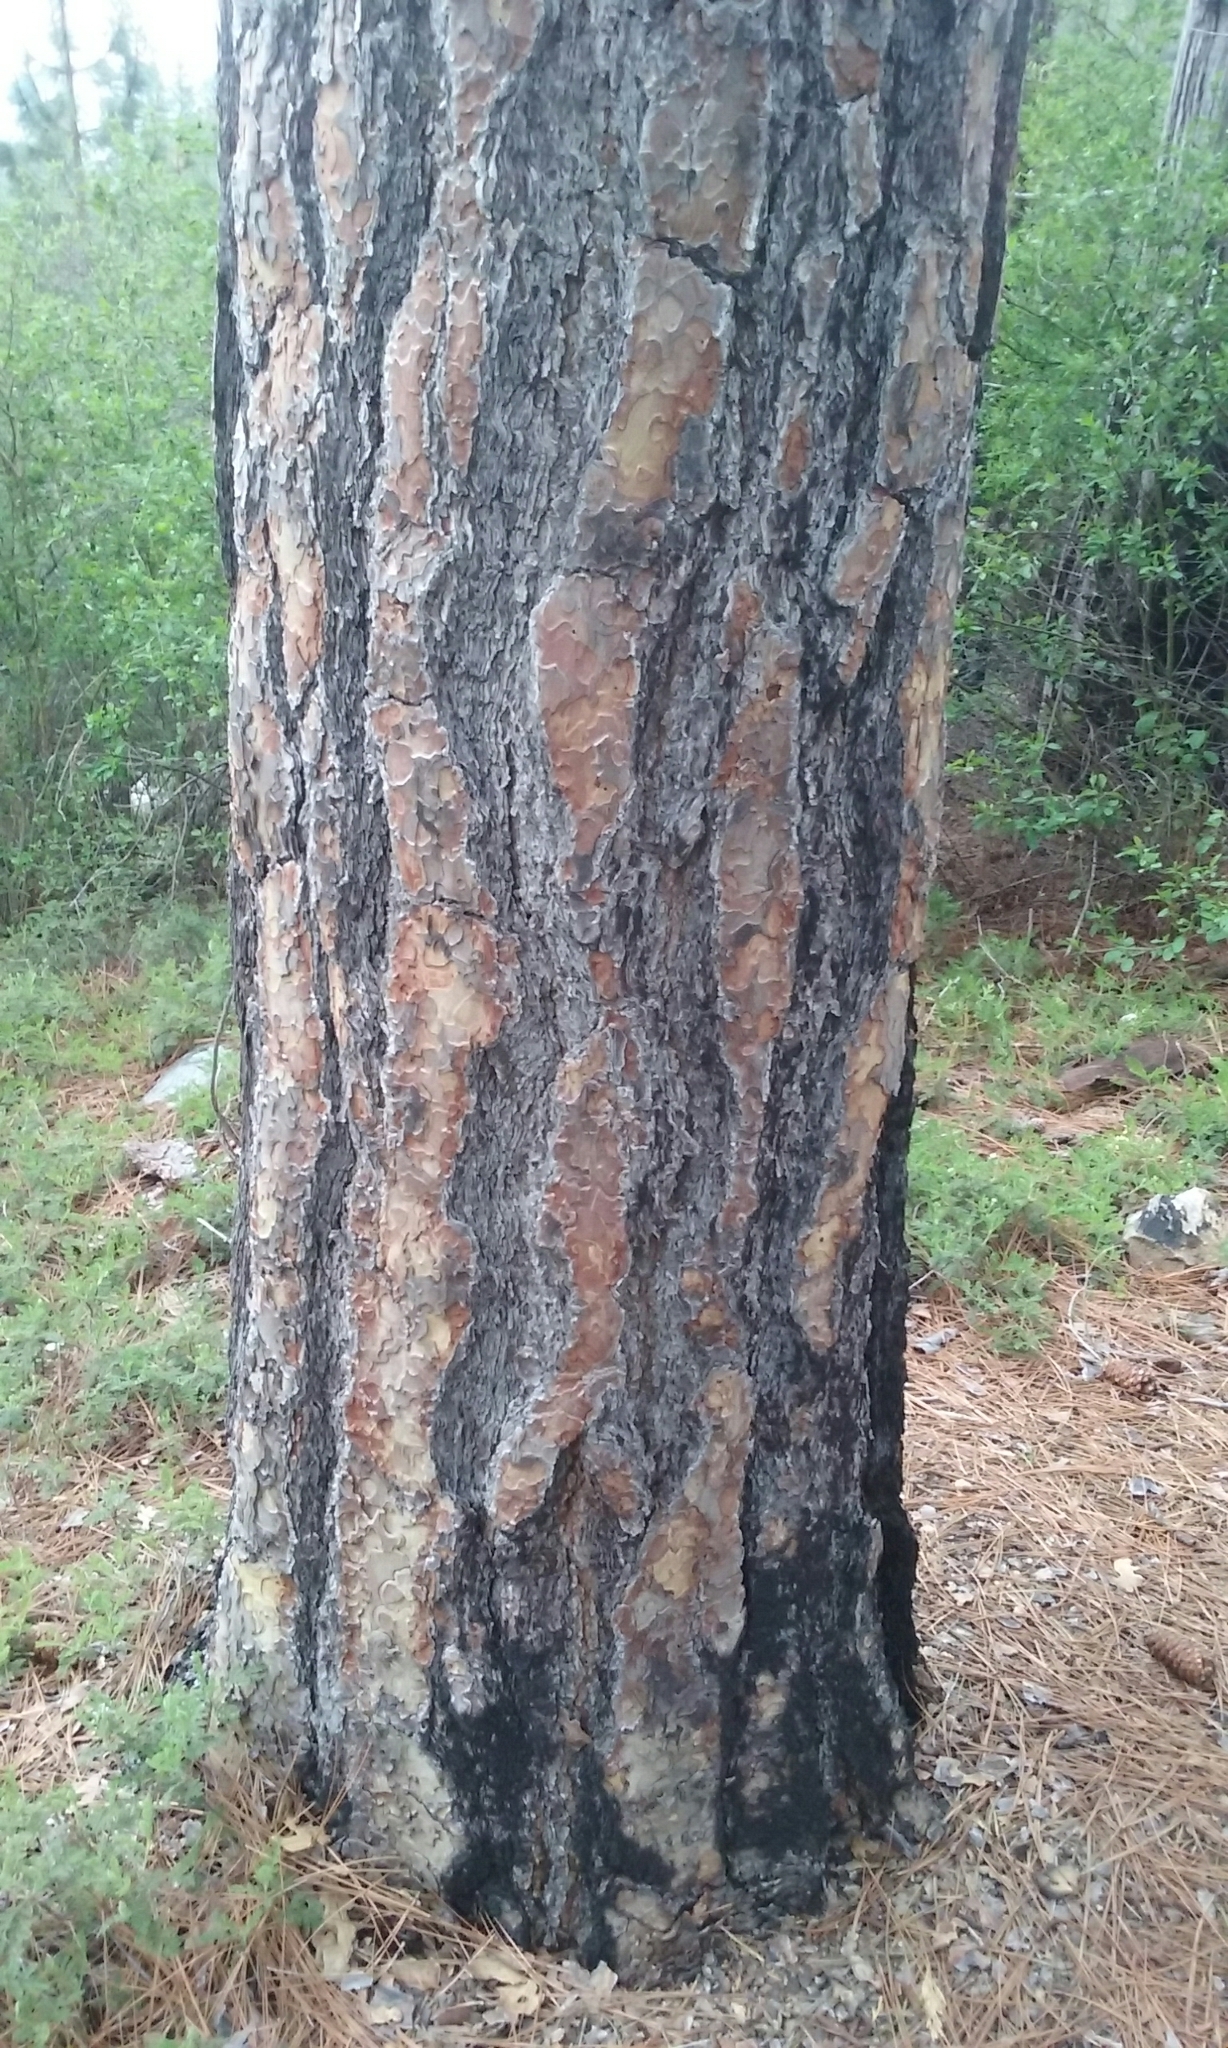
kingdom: Plantae
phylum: Tracheophyta
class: Pinopsida
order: Pinales
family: Pinaceae
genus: Pinus
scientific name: Pinus ponderosa
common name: Western yellow-pine
